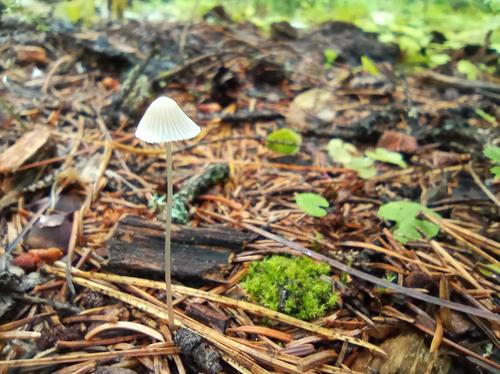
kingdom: Fungi
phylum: Basidiomycota
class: Agaricomycetes
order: Agaricales
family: Mycenaceae
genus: Mycena
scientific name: Mycena galericulata
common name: Bonnet mycena
